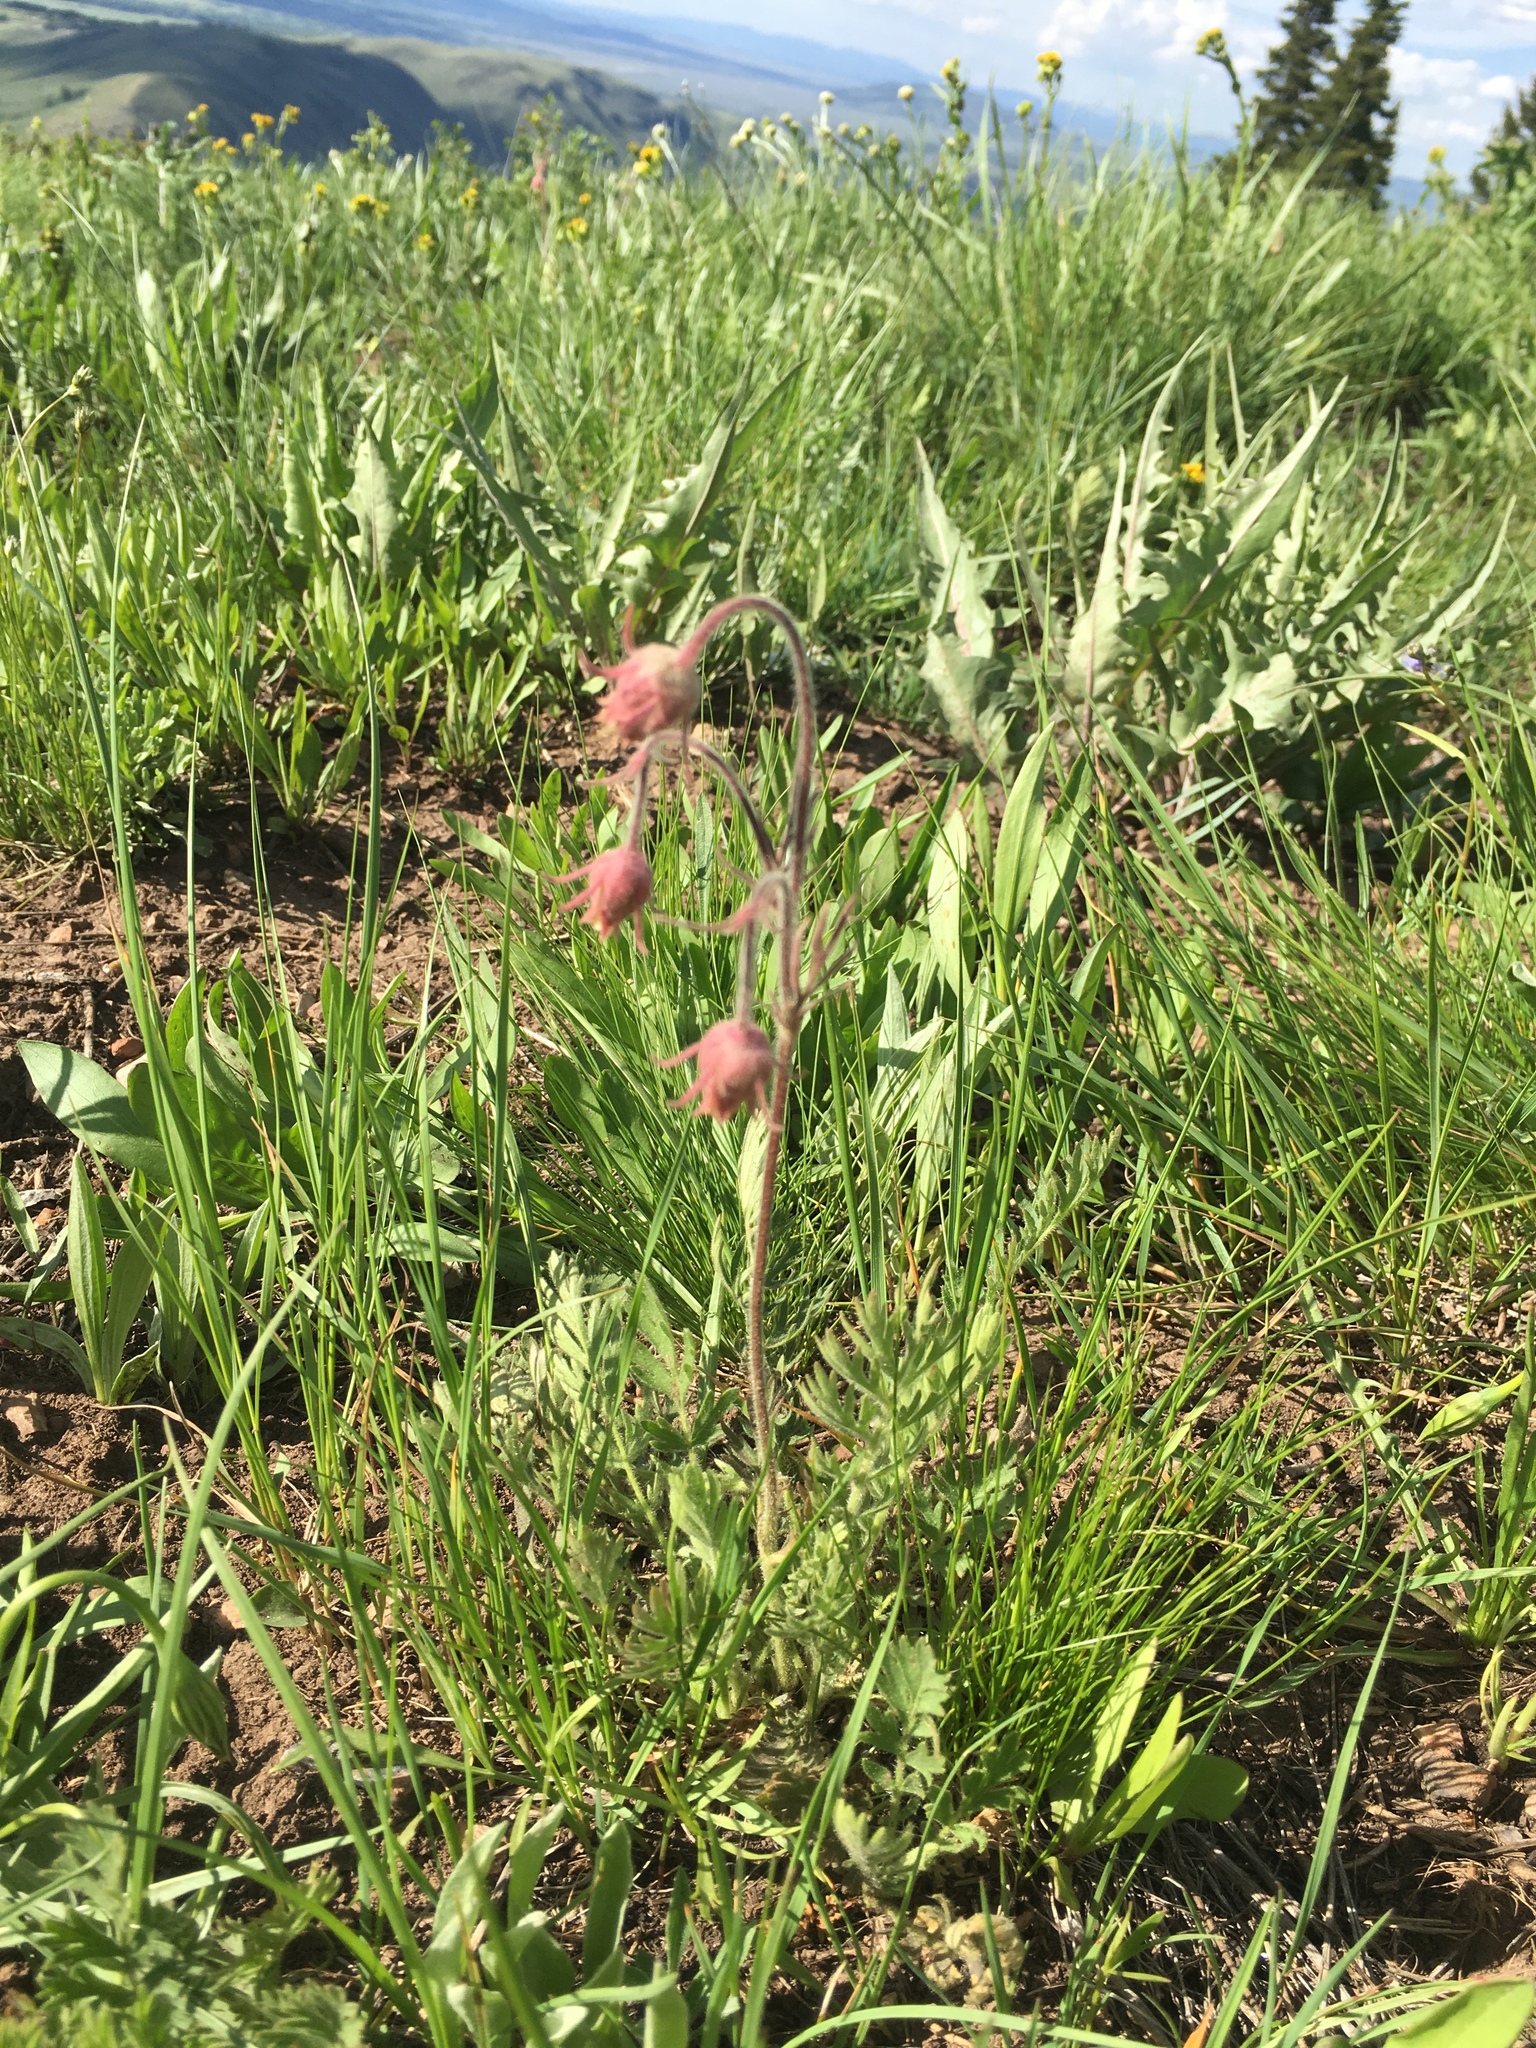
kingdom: Plantae
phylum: Tracheophyta
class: Magnoliopsida
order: Rosales
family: Rosaceae
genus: Geum
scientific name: Geum triflorum
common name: Old man's whiskers
